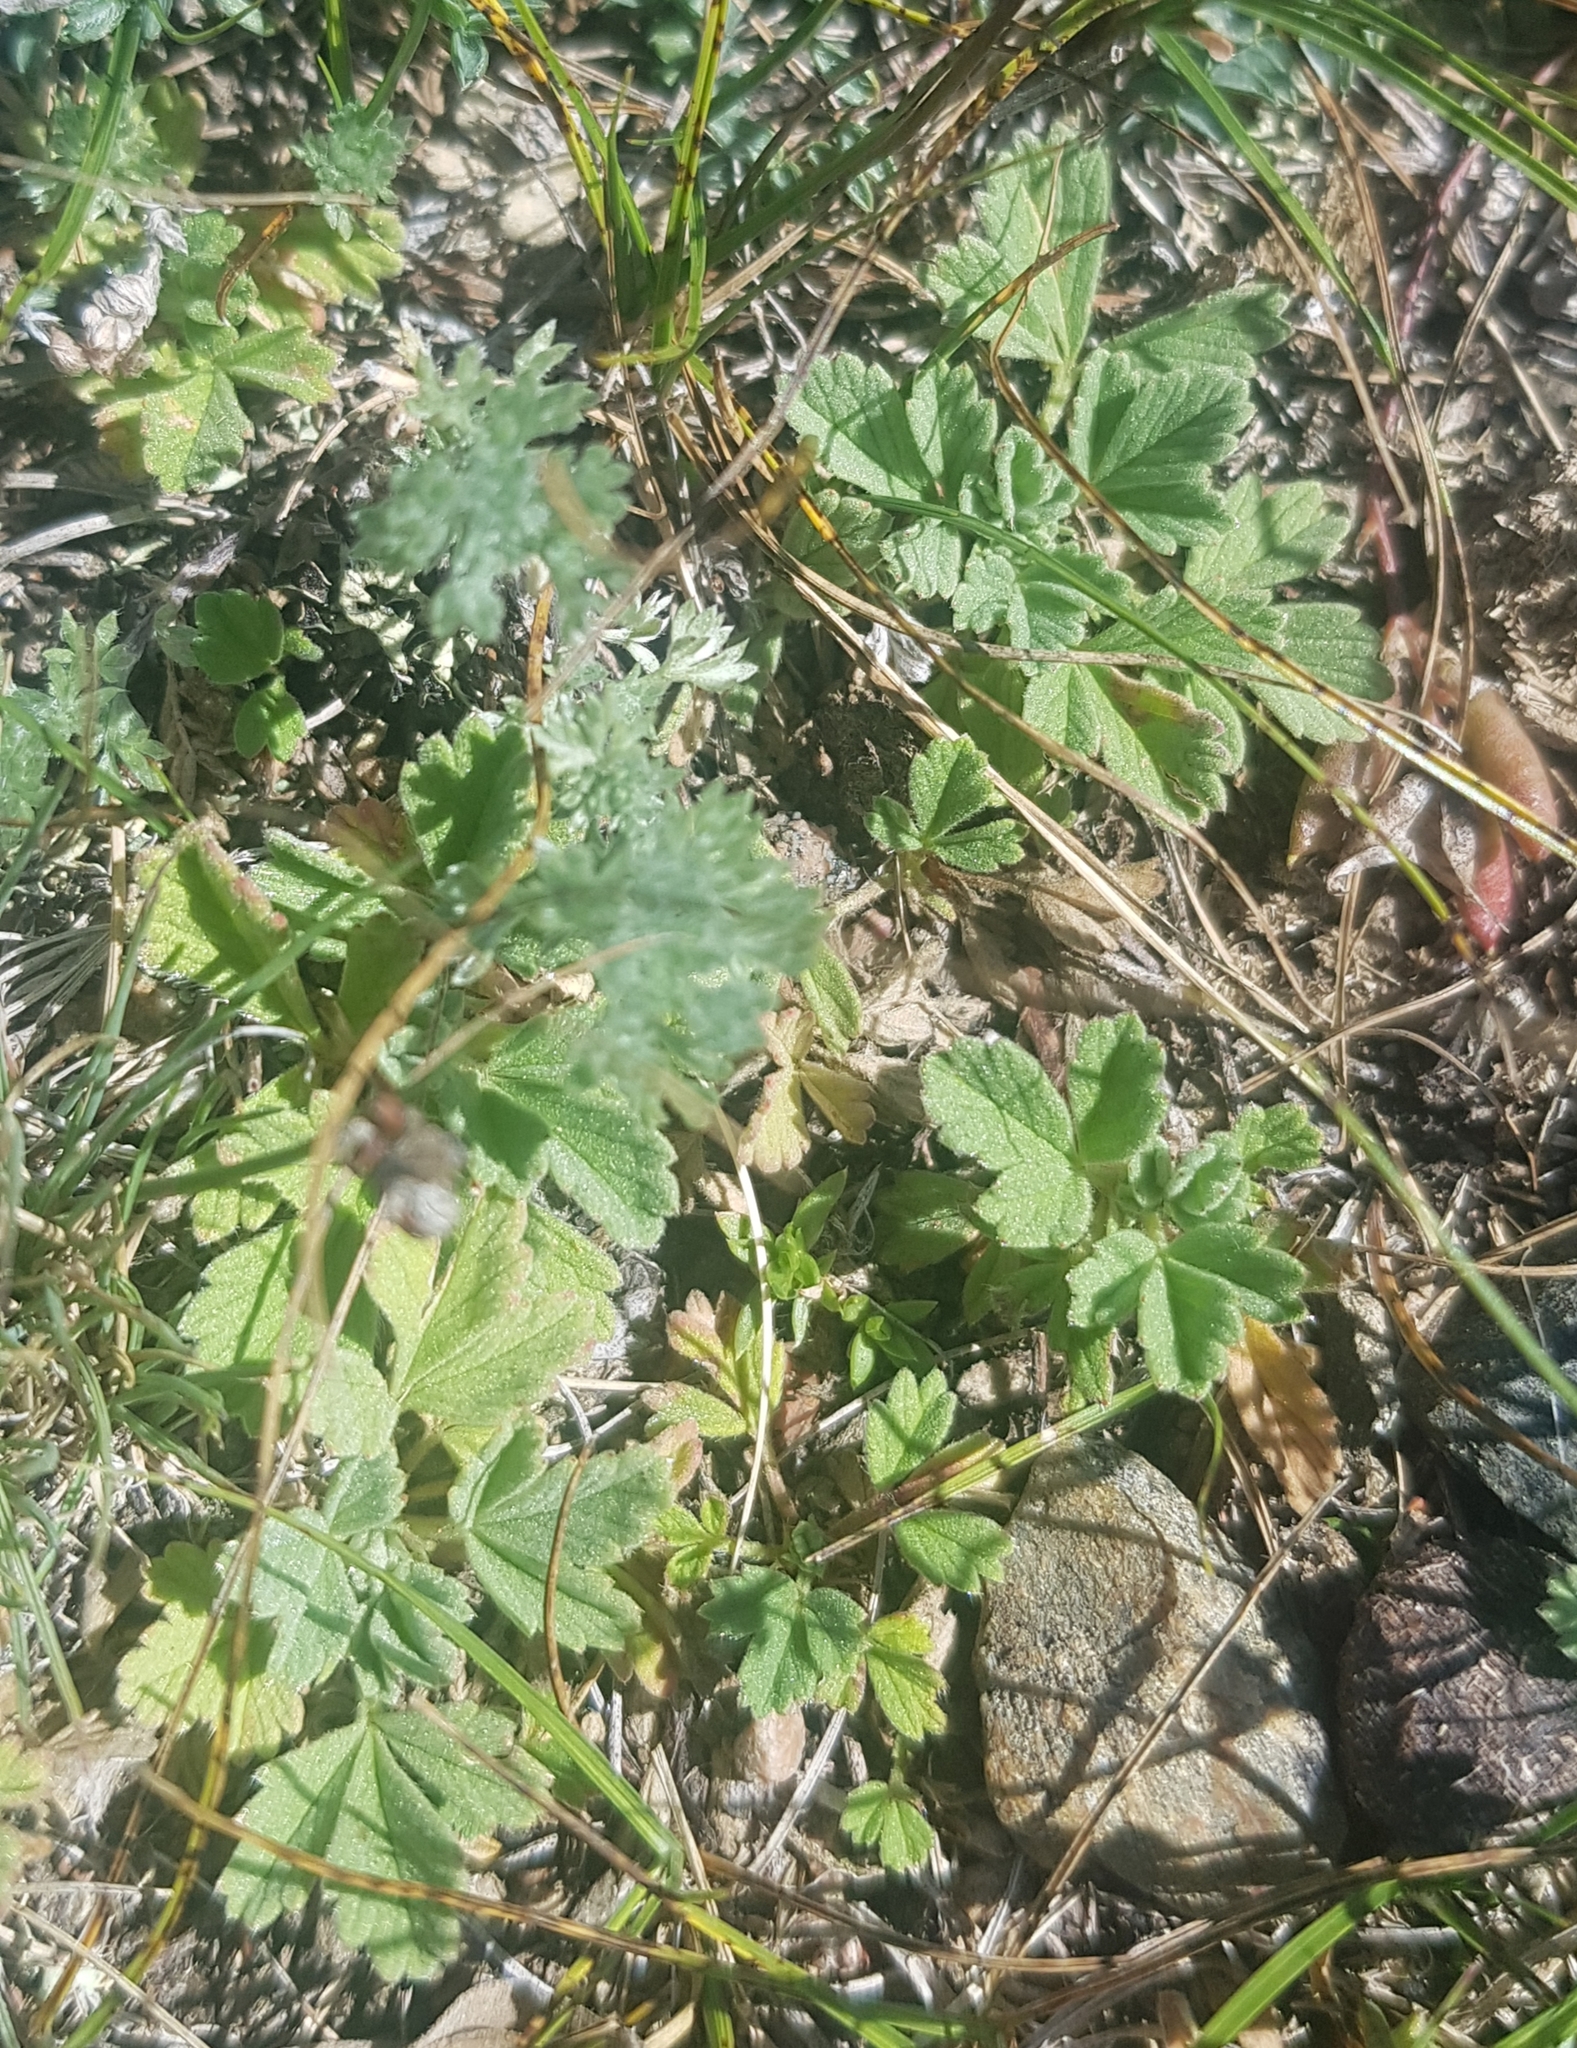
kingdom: Plantae
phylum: Tracheophyta
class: Magnoliopsida
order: Rosales
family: Rosaceae
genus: Potentilla
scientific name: Potentilla acaulis
